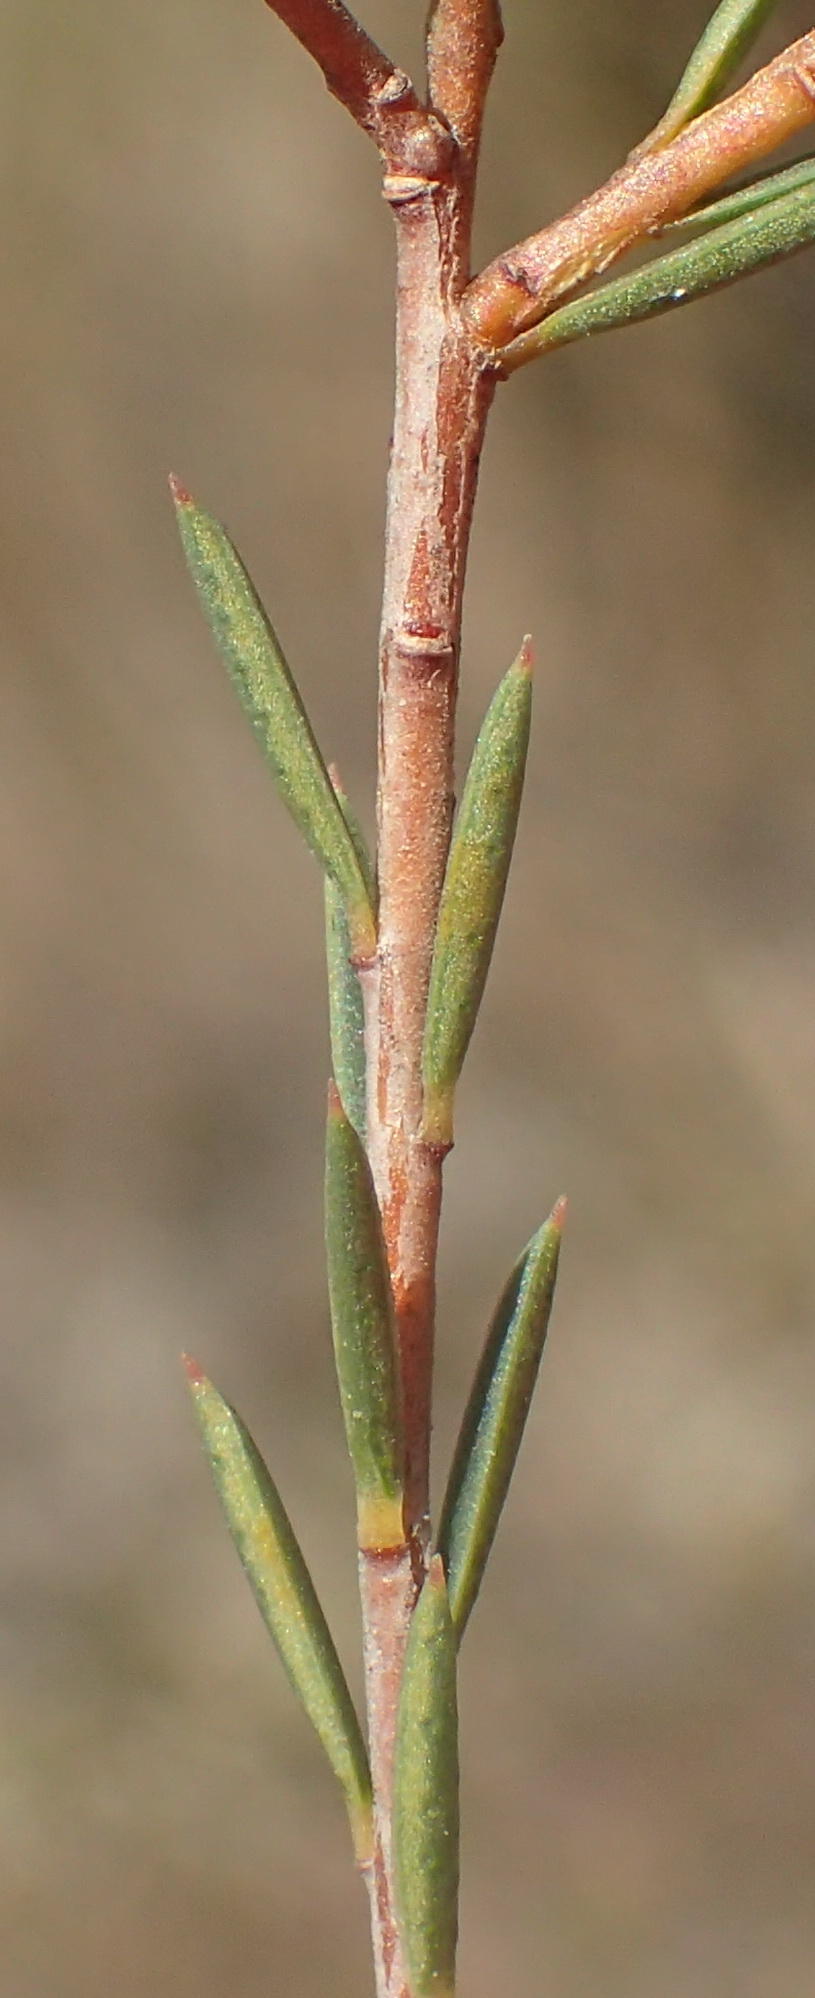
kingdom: Plantae
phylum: Tracheophyta
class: Magnoliopsida
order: Sapindales
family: Rutaceae
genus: Diosma
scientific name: Diosma hirsuta
